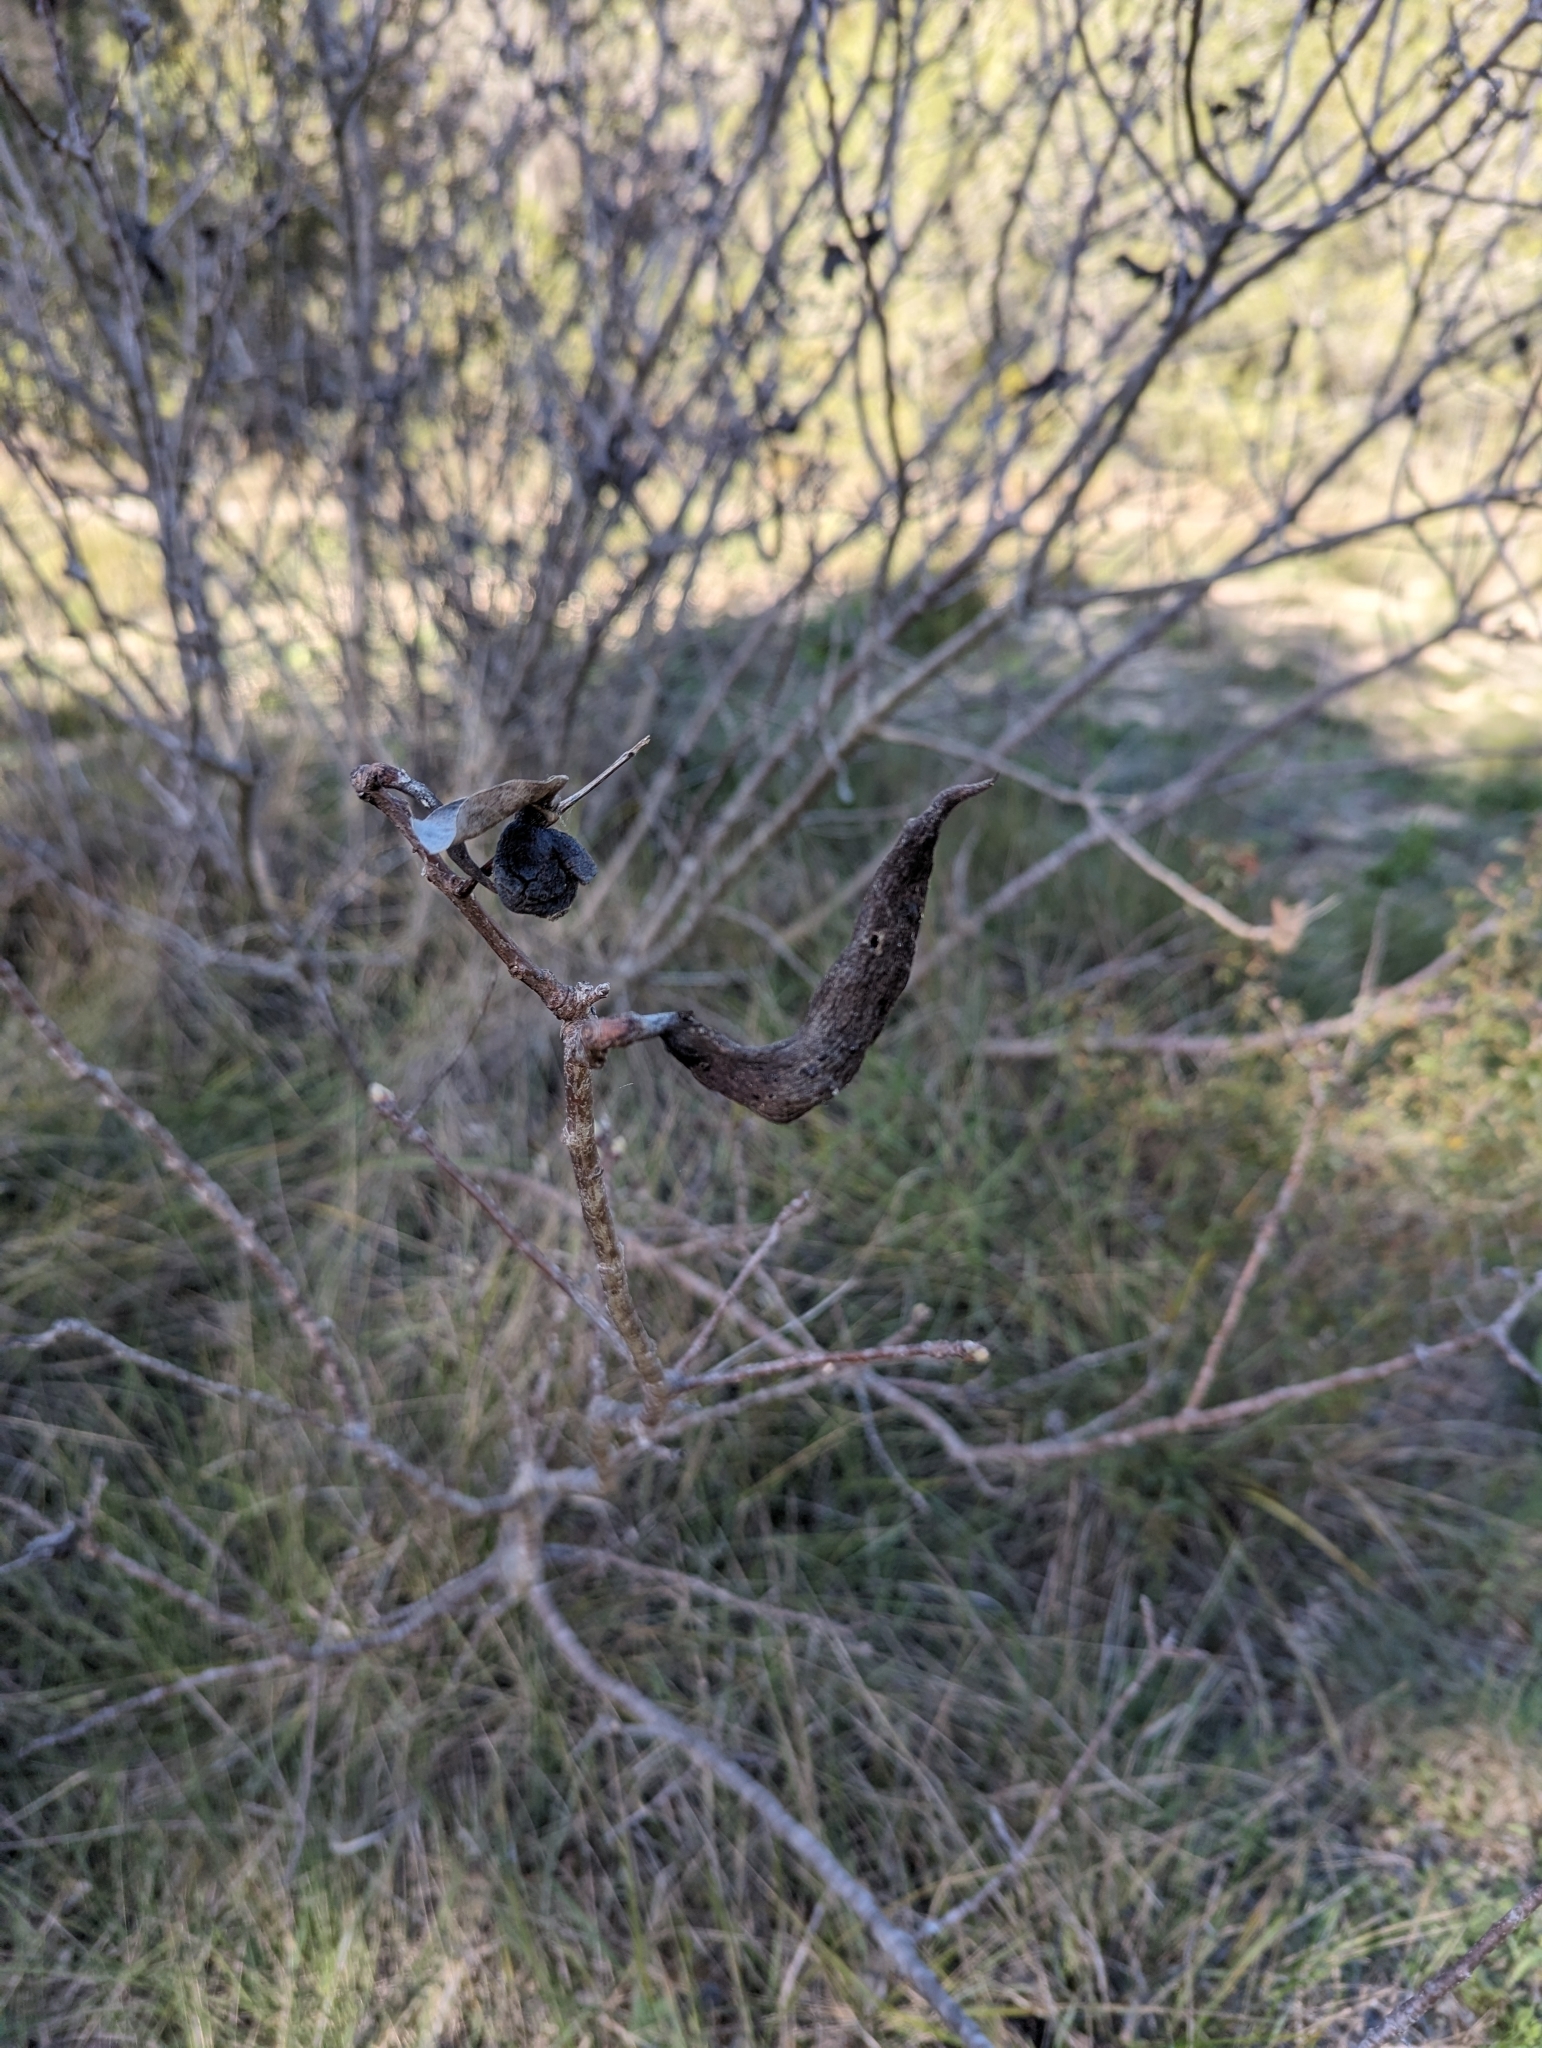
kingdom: Plantae
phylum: Tracheophyta
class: Magnoliopsida
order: Sapindales
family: Anacardiaceae
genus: Pistacia
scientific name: Pistacia terebinthus
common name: Terebinth
